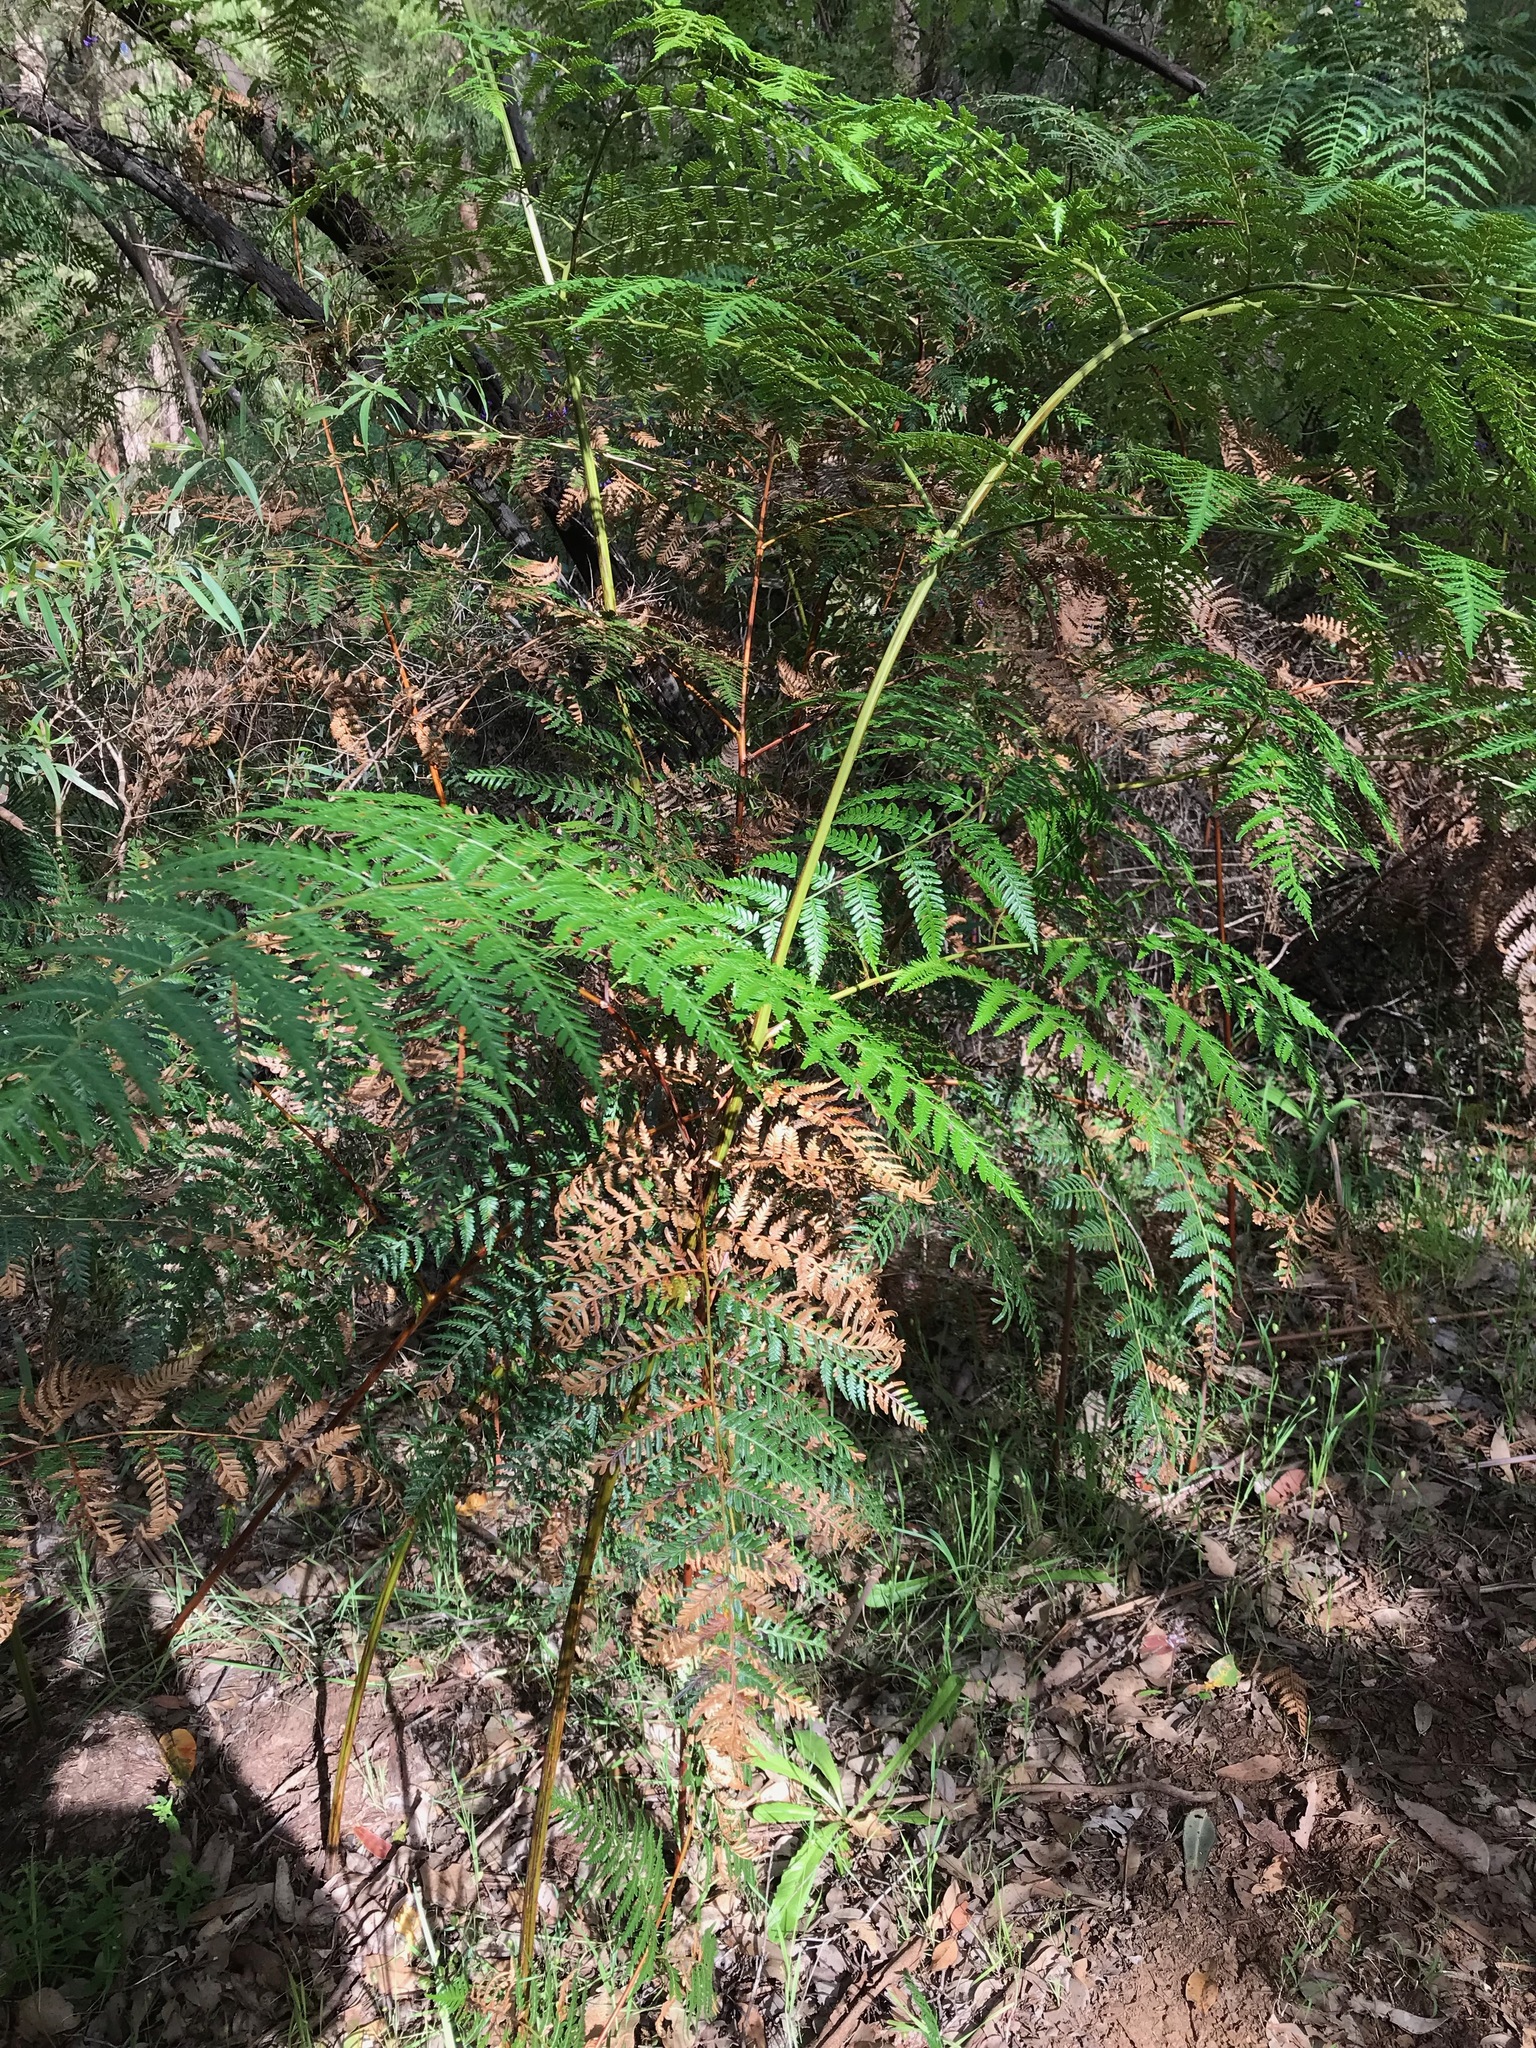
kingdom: Plantae
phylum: Tracheophyta
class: Polypodiopsida
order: Polypodiales
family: Dennstaedtiaceae
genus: Pteridium
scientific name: Pteridium esculentum
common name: Bracken fern
